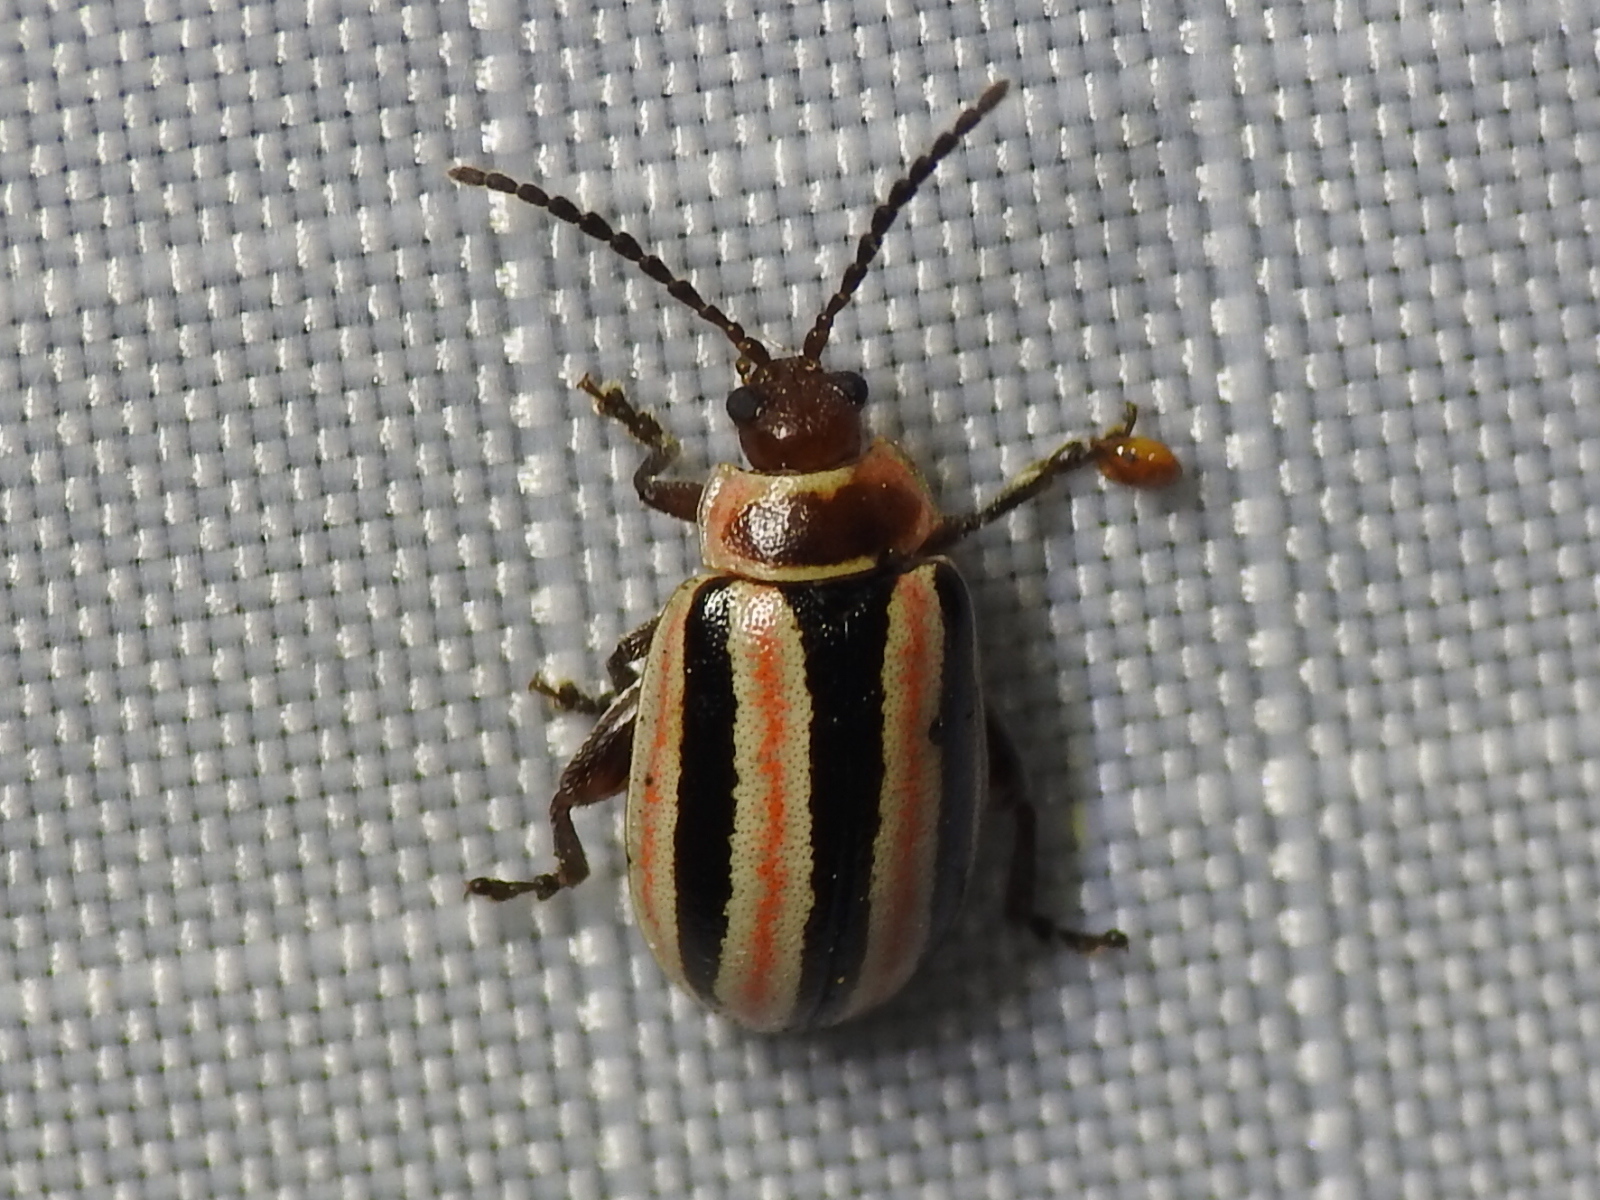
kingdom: Animalia
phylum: Arthropoda
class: Insecta
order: Coleoptera
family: Chrysomelidae
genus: Kuschelina
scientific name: Kuschelina miniata
